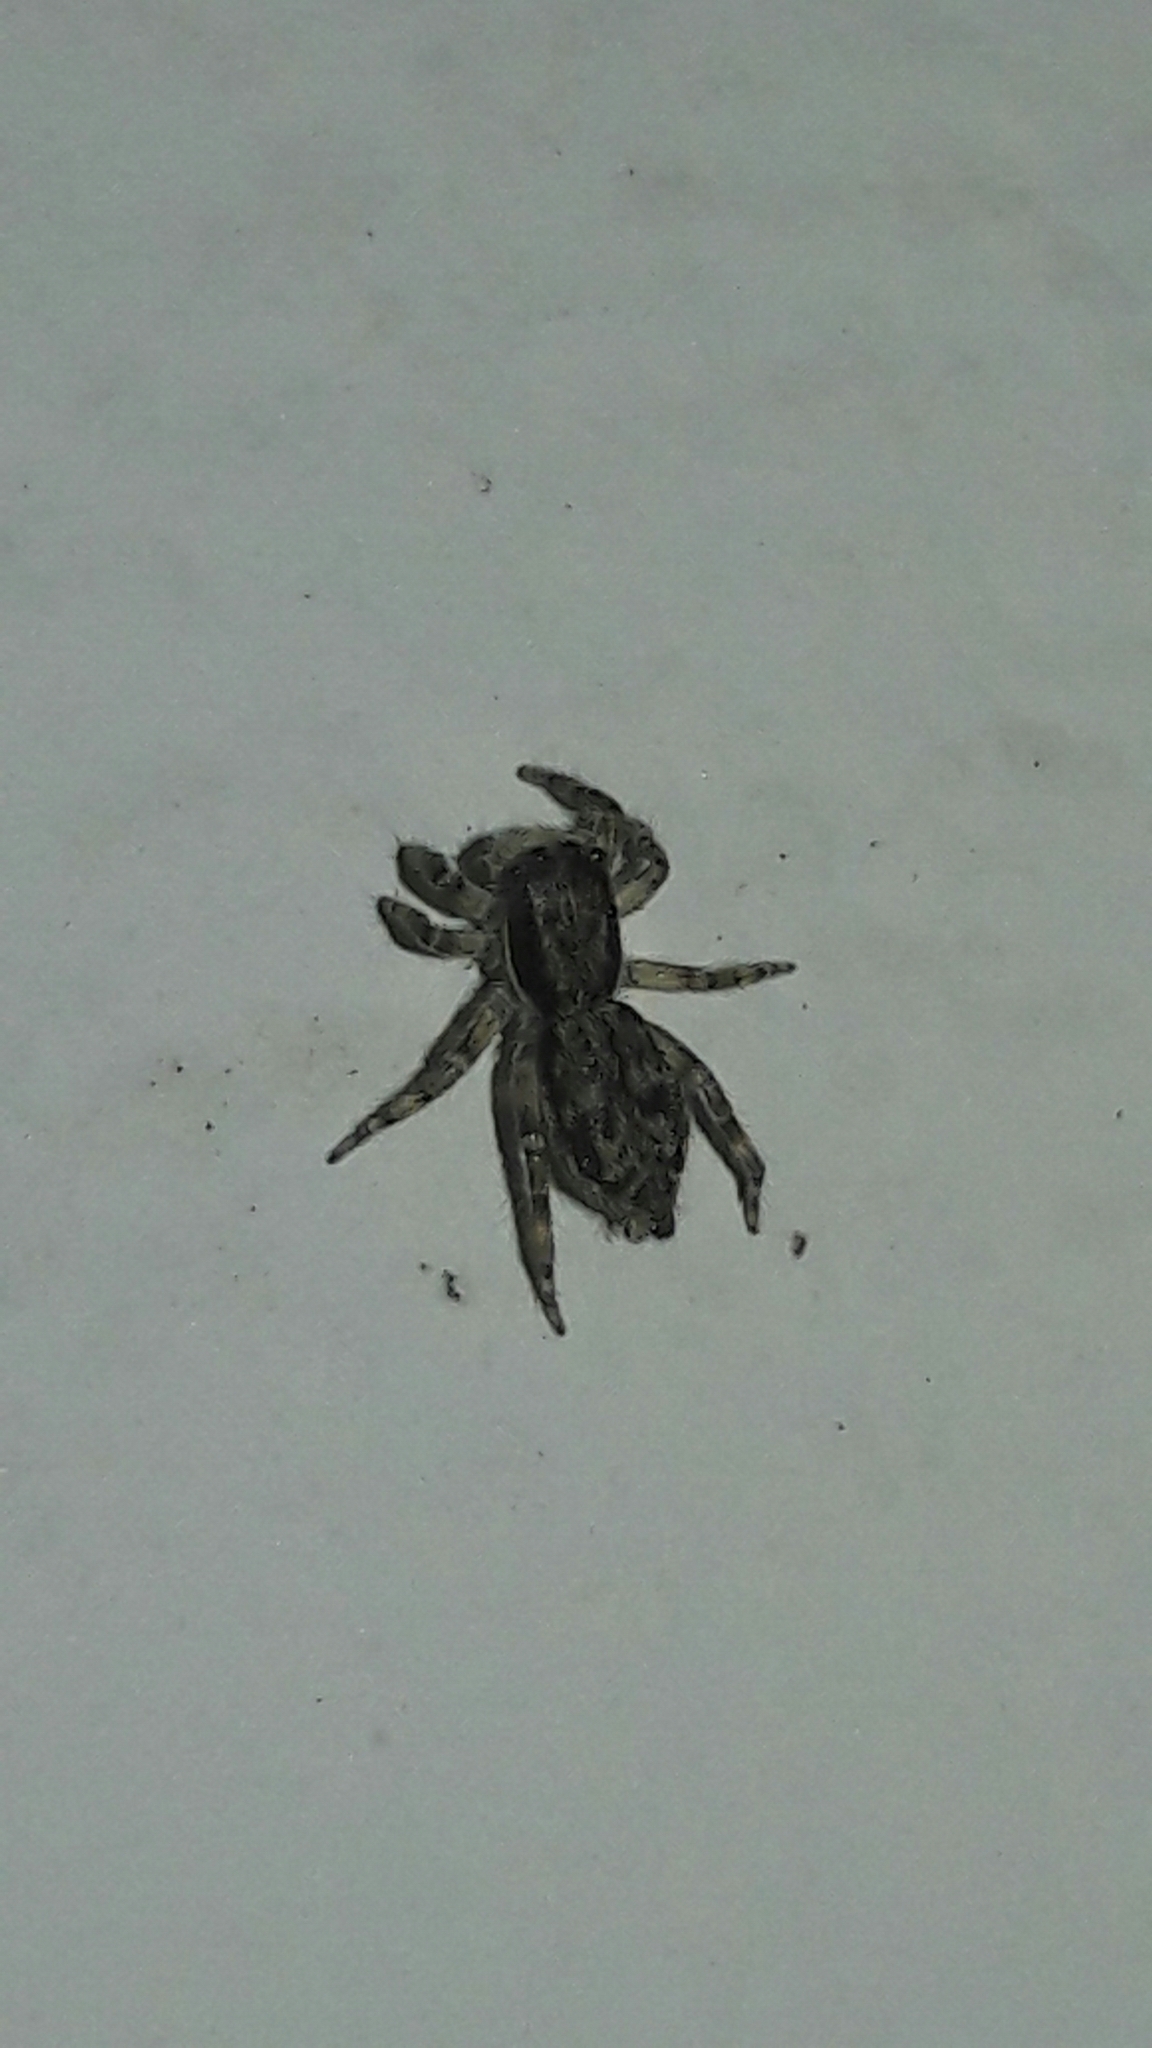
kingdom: Animalia
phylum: Arthropoda
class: Arachnida
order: Araneae
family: Salticidae
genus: Menemerus
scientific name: Menemerus bivittatus
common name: Gray wall jumper
